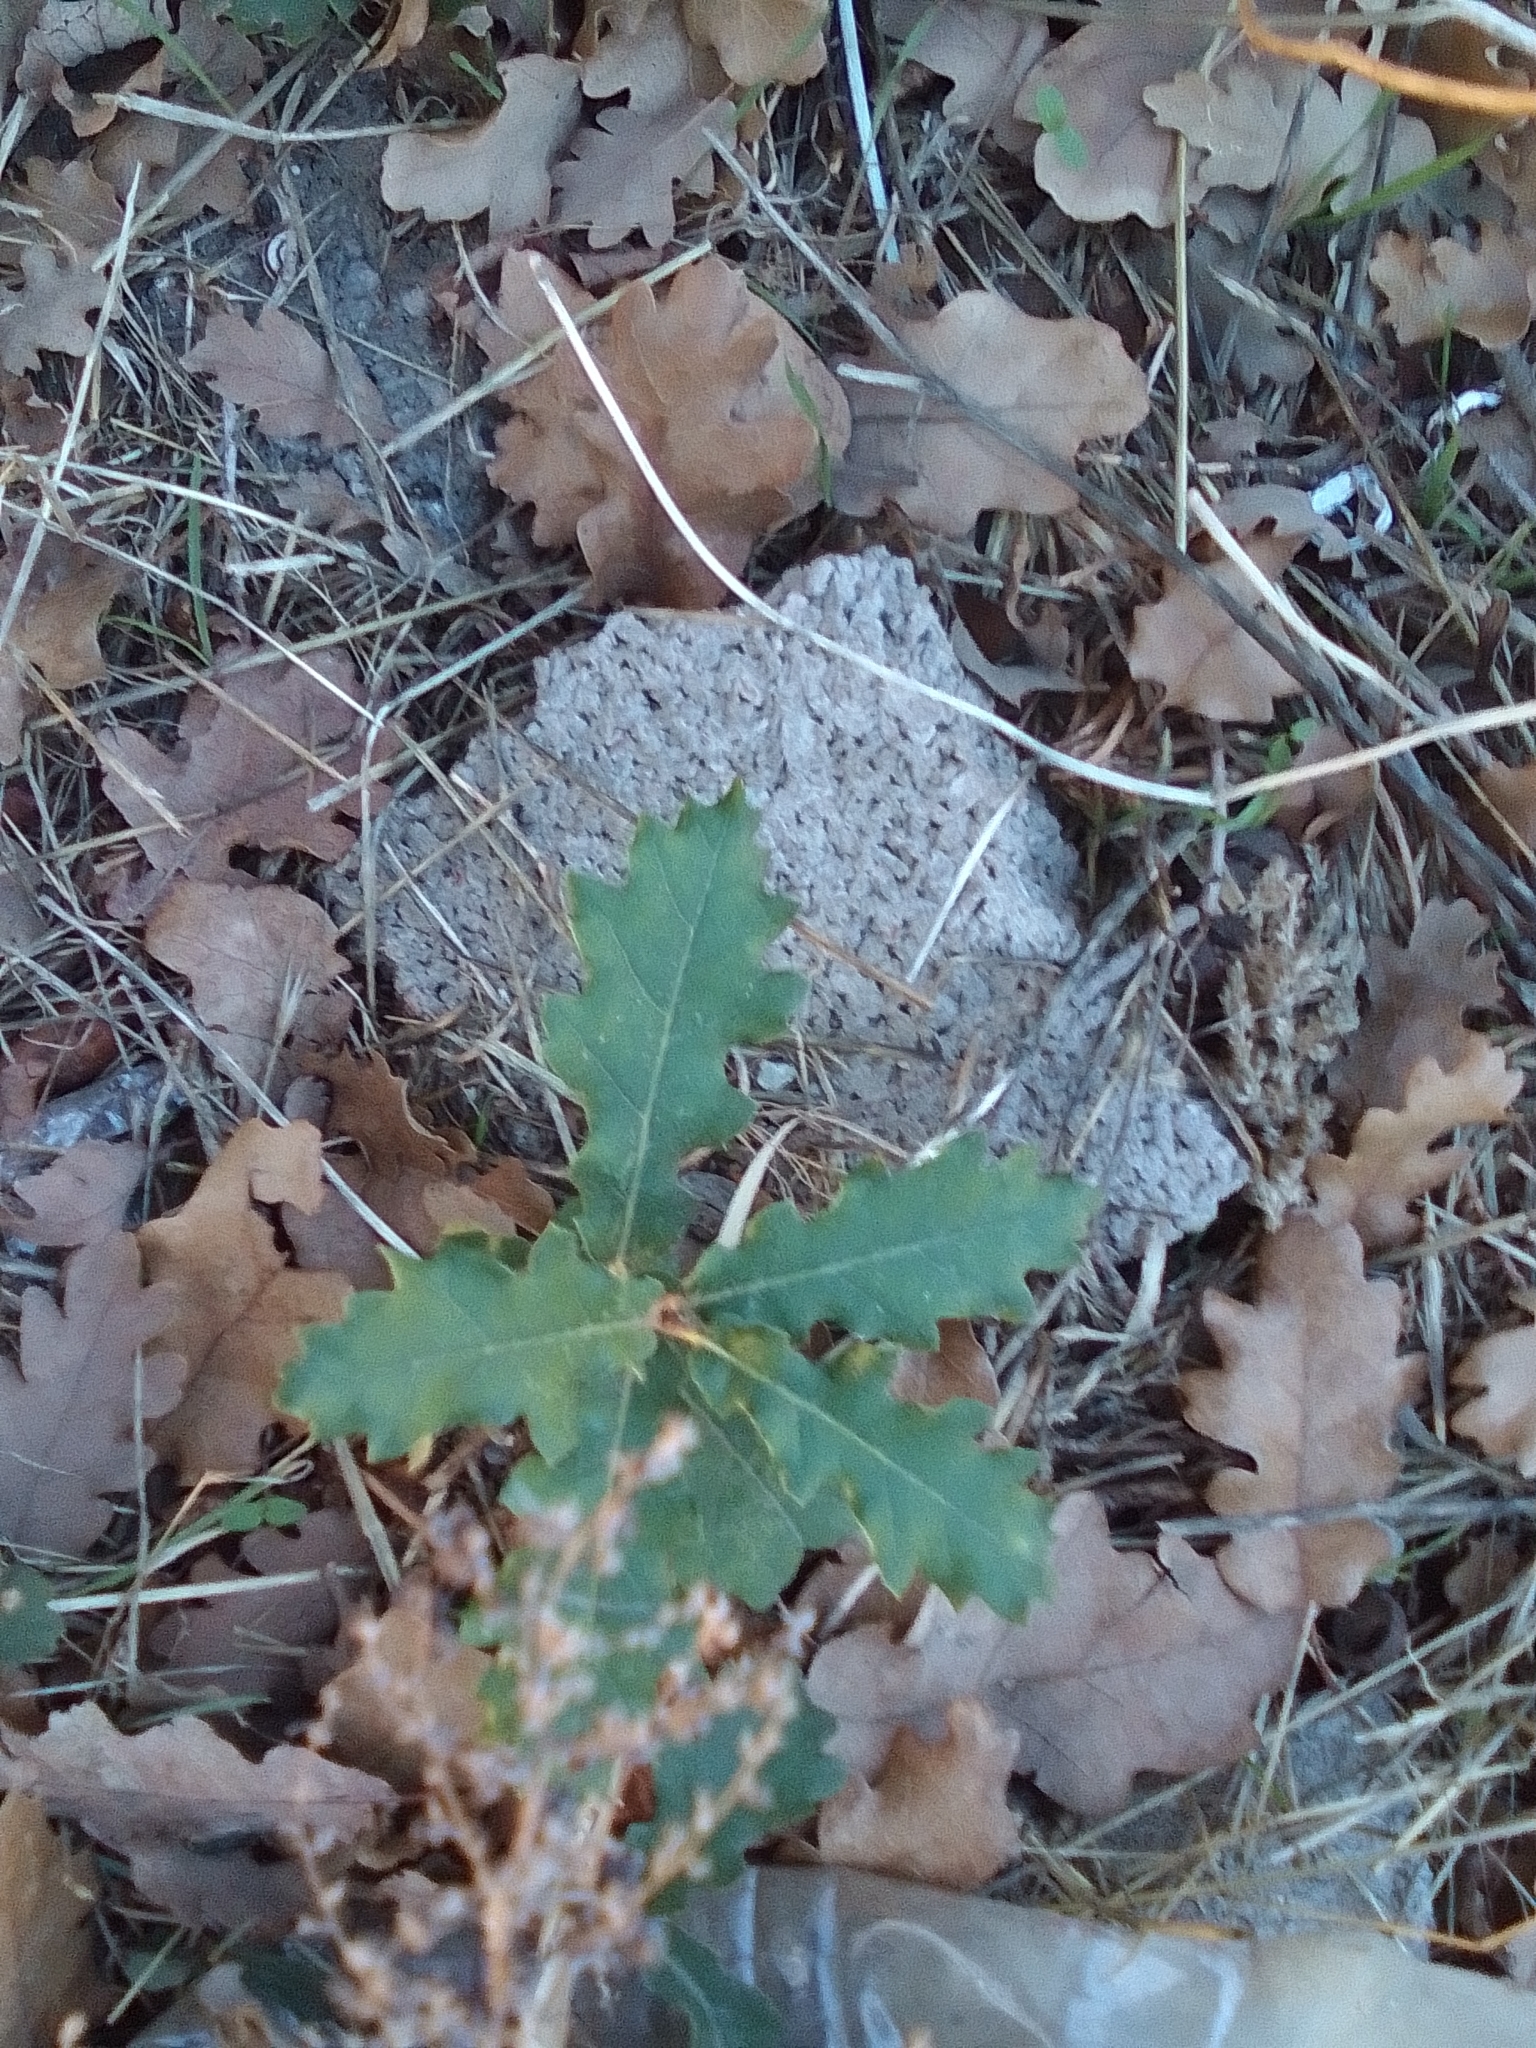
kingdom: Plantae
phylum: Tracheophyta
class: Magnoliopsida
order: Fagales
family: Fagaceae
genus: Quercus
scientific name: Quercus pubescens
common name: Downy oak
